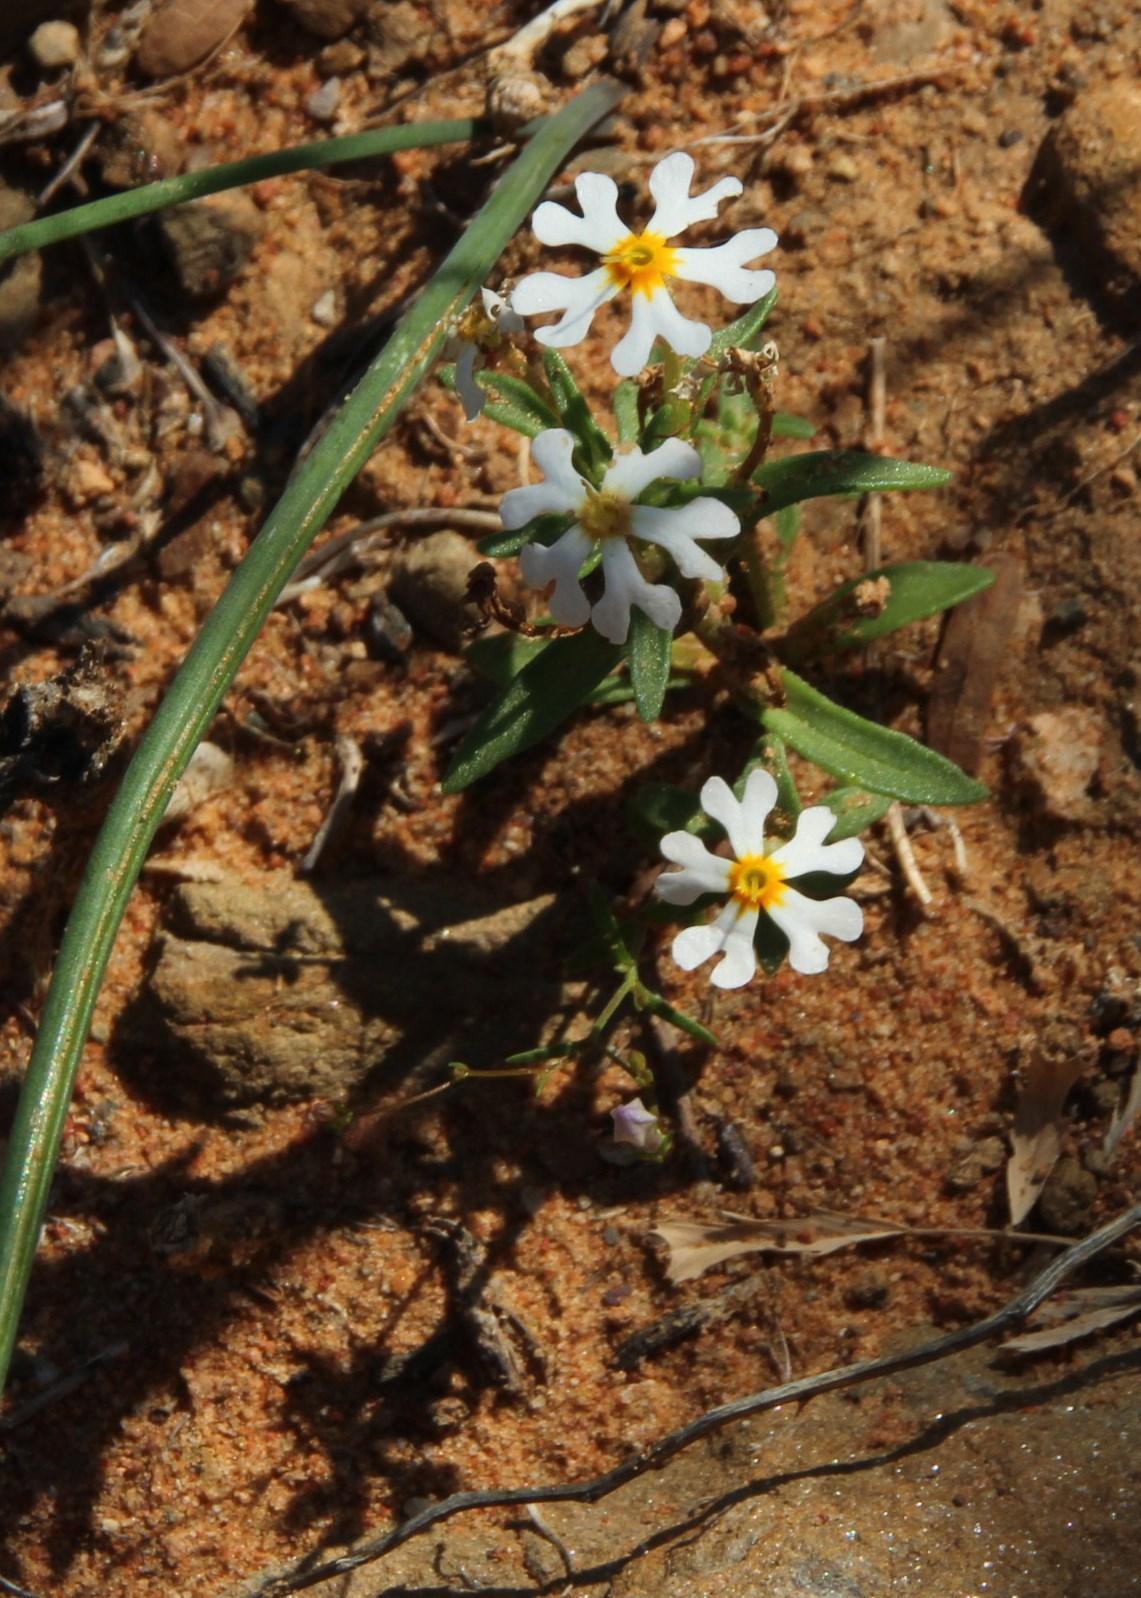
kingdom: Plantae
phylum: Tracheophyta
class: Magnoliopsida
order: Lamiales
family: Scrophulariaceae
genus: Zaluzianskya
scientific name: Zaluzianskya affinis
